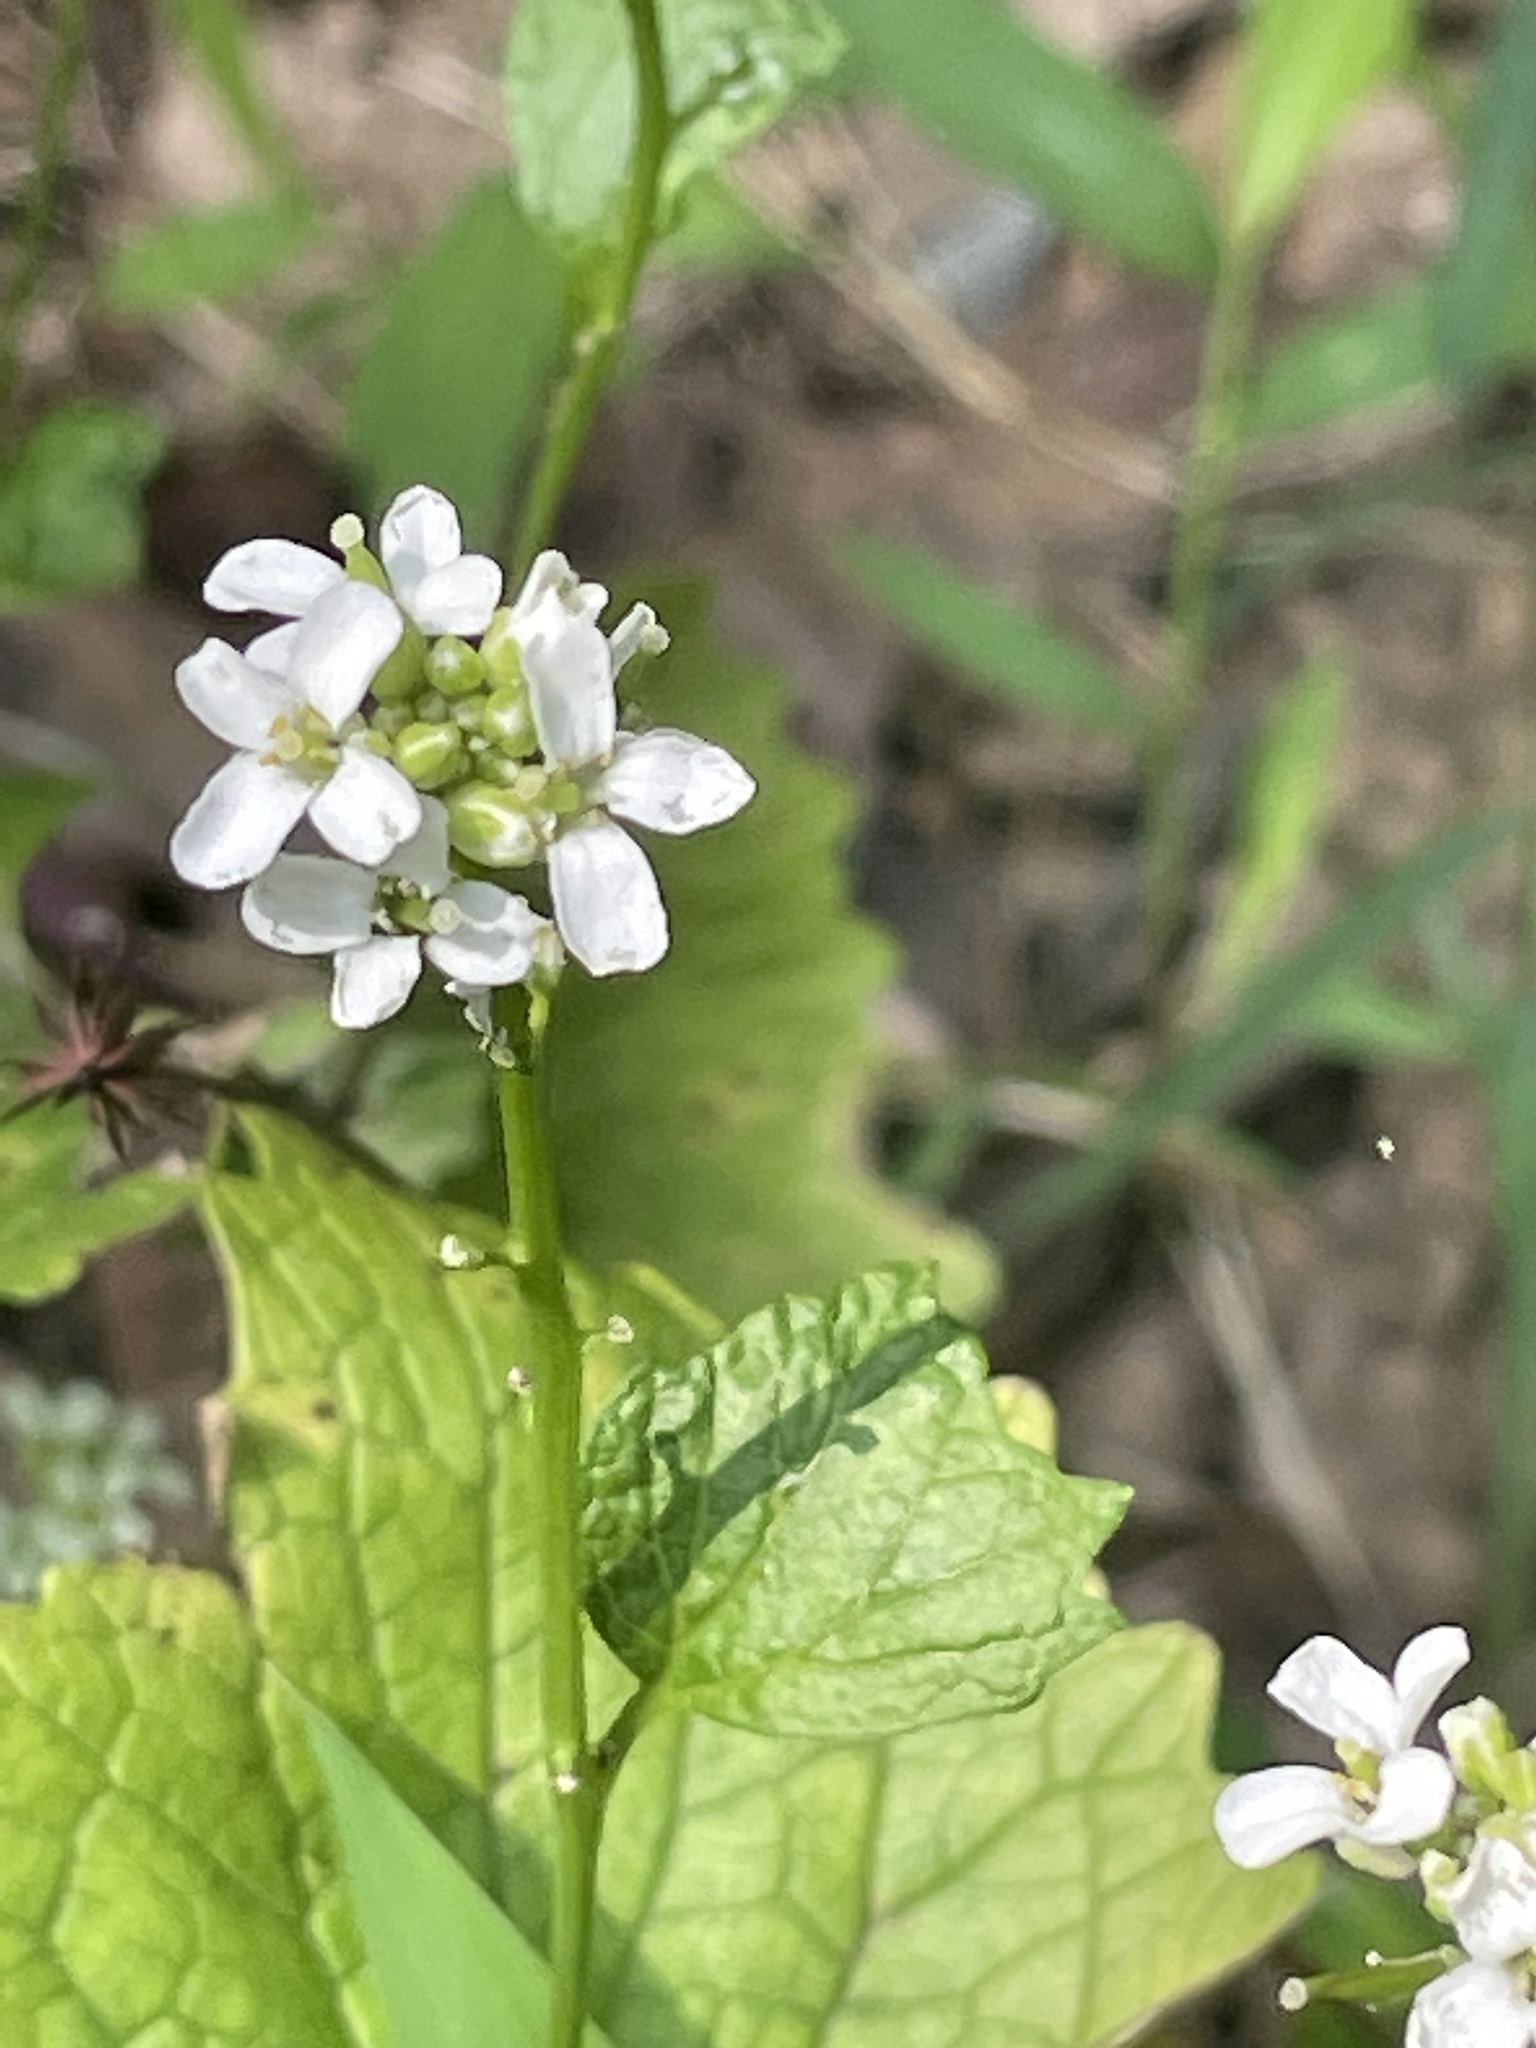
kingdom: Plantae
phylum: Tracheophyta
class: Magnoliopsida
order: Brassicales
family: Brassicaceae
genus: Alliaria
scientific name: Alliaria petiolata
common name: Garlic mustard
